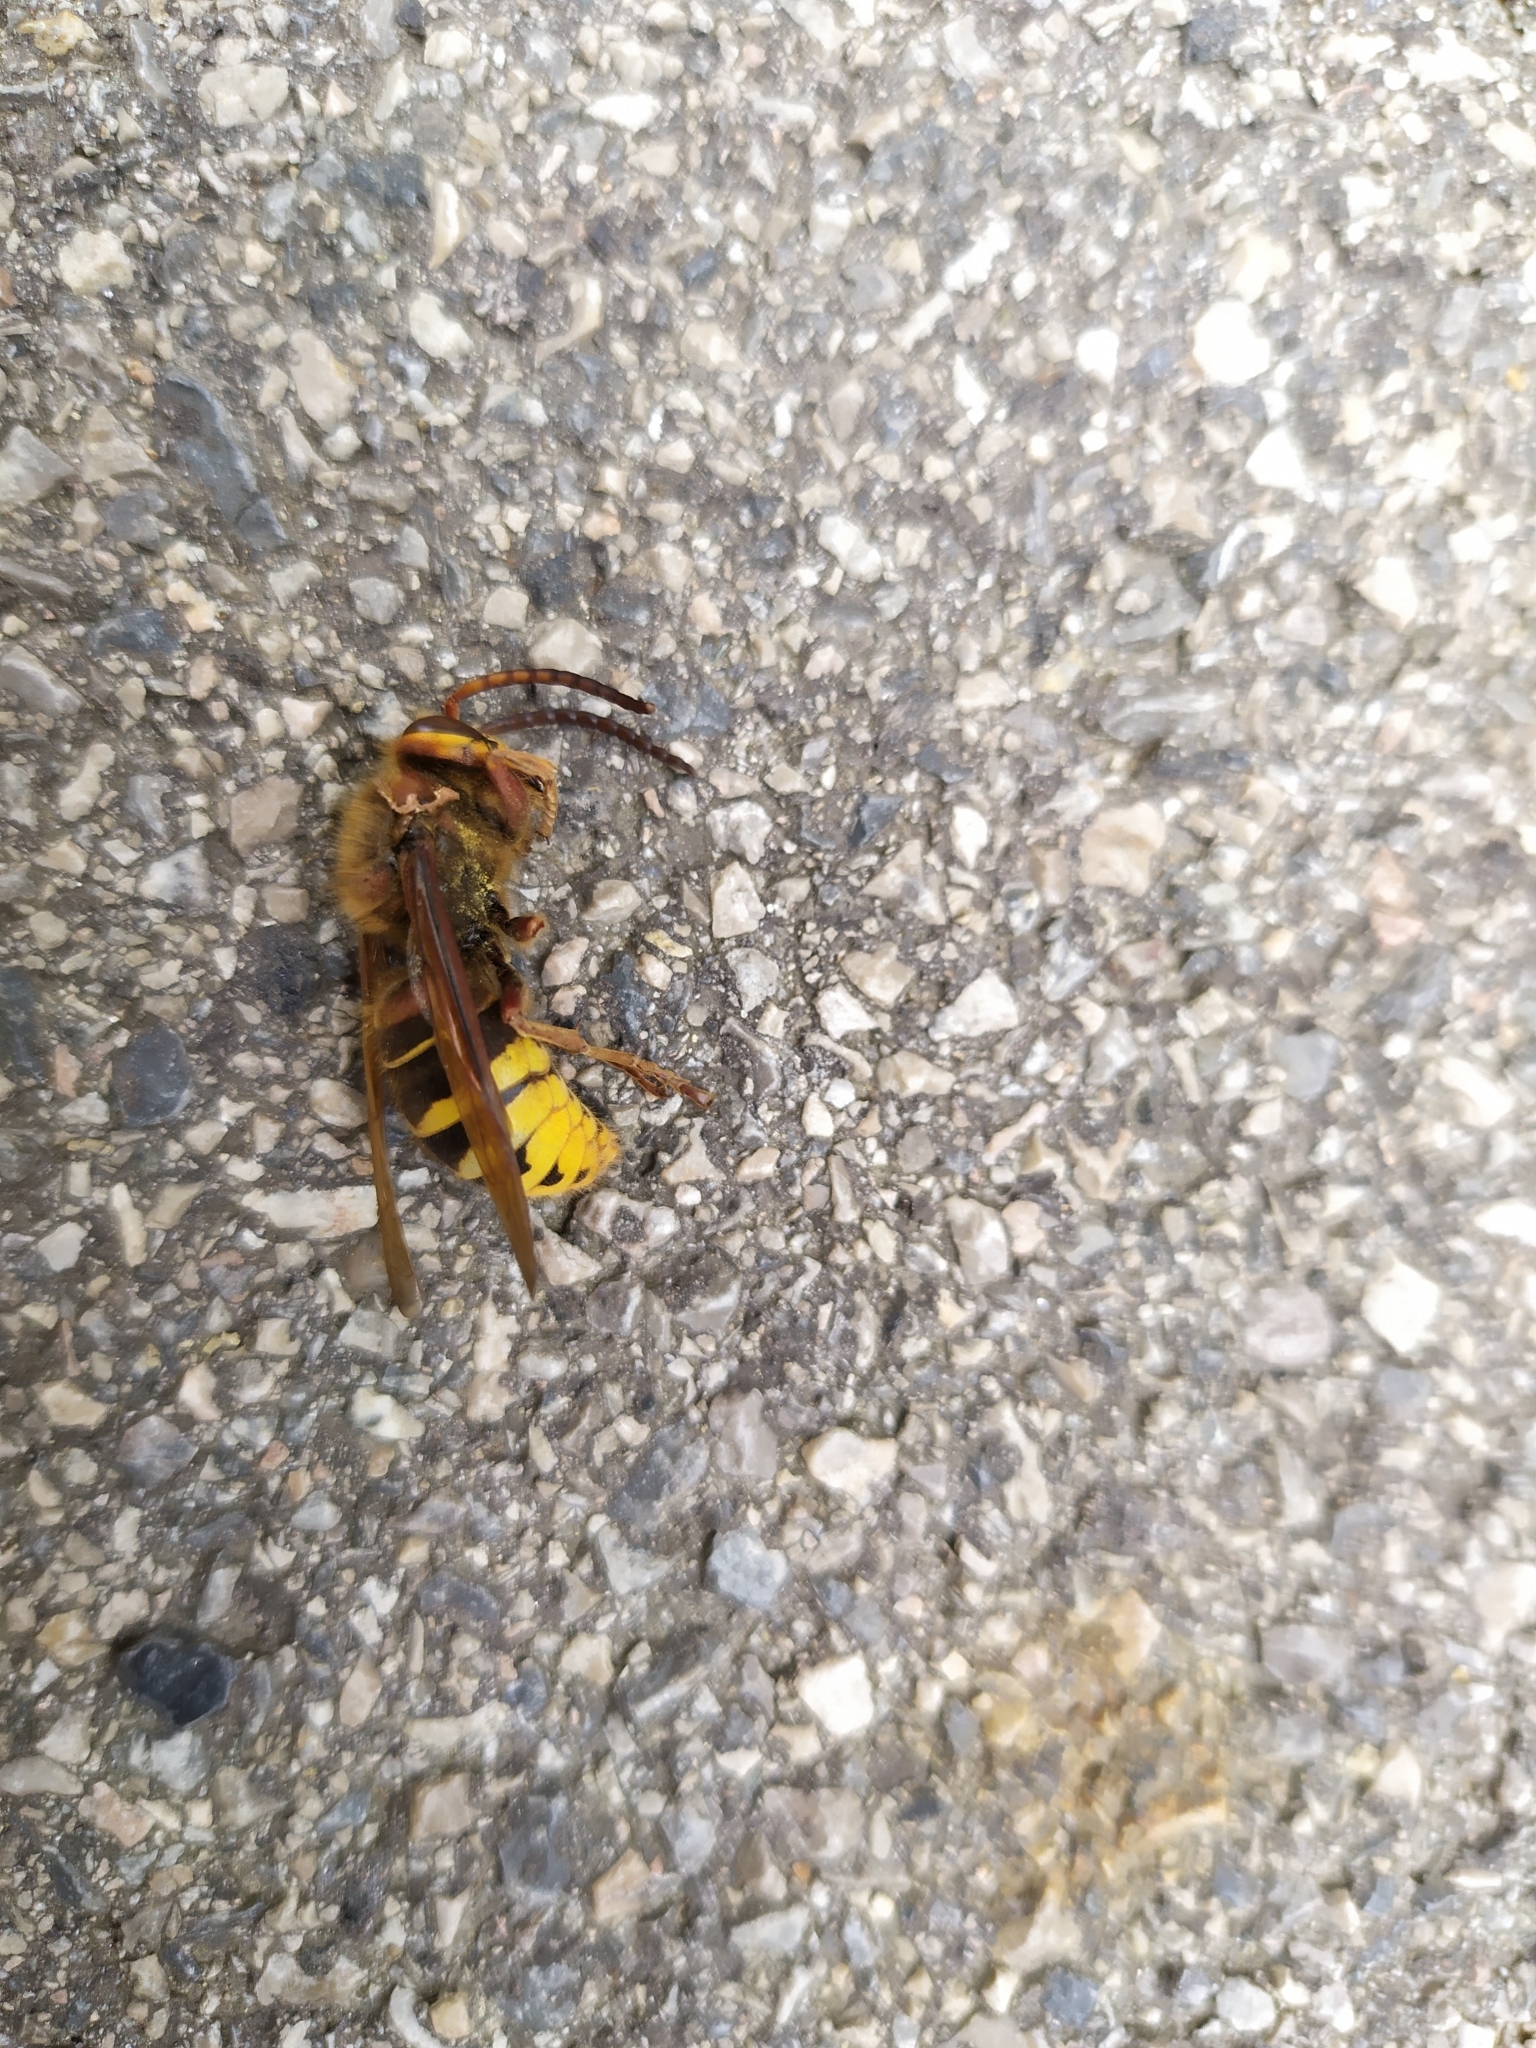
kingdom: Animalia
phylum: Arthropoda
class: Insecta
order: Hymenoptera
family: Vespidae
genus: Vespa
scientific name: Vespa crabro
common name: Hornet
